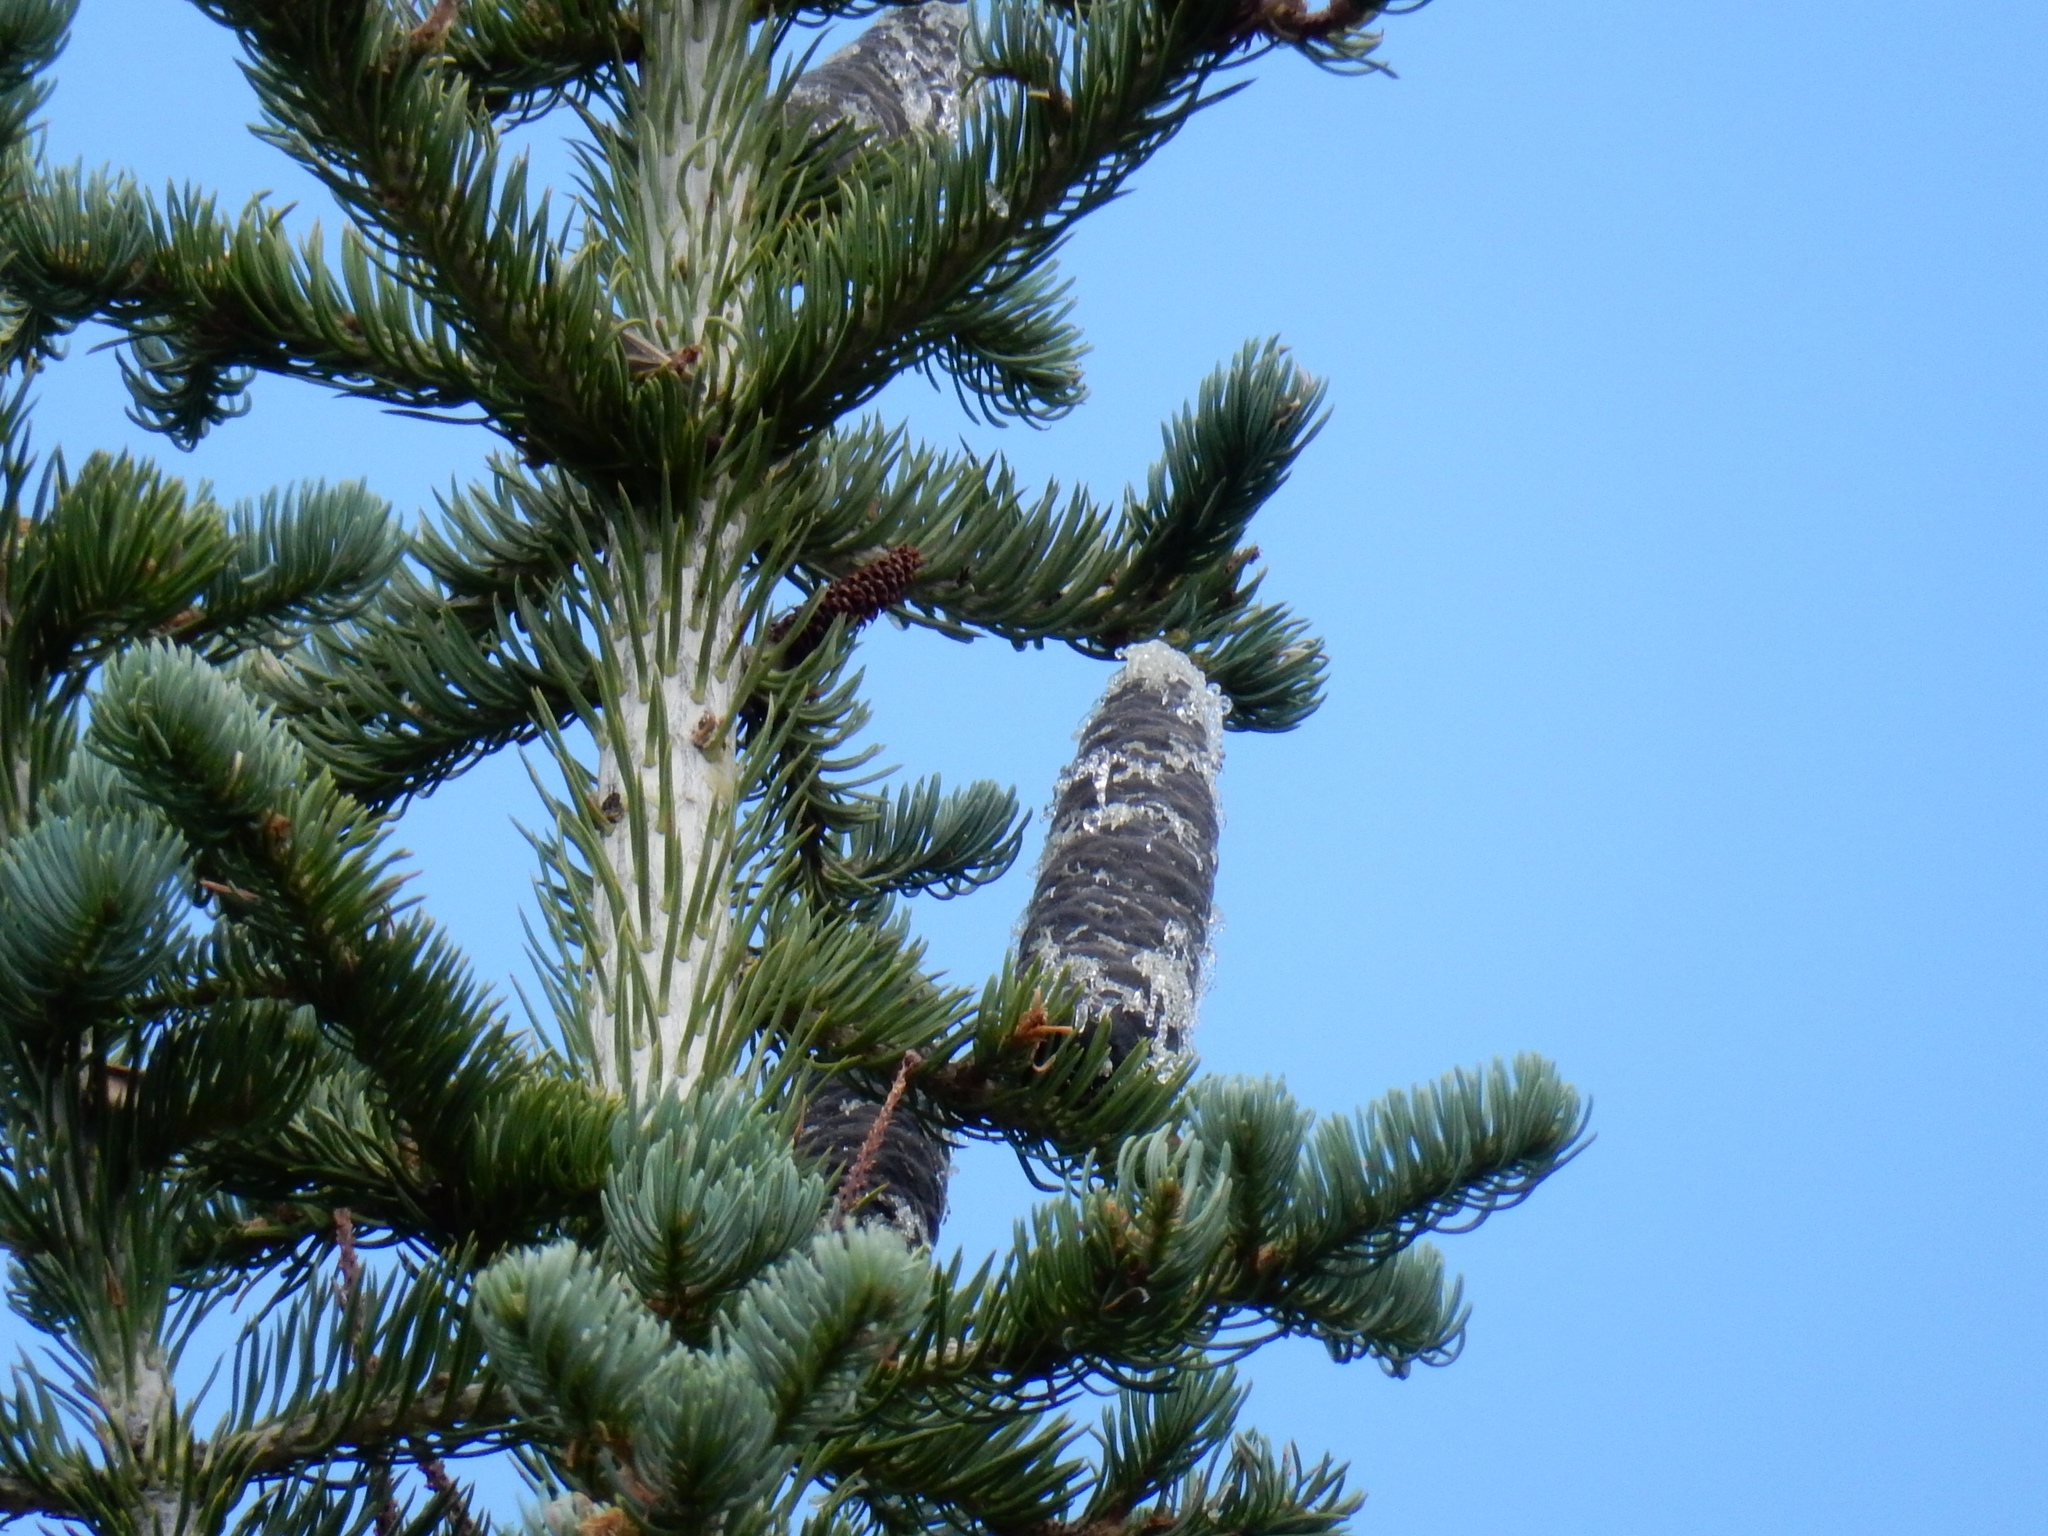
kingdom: Plantae
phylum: Tracheophyta
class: Pinopsida
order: Pinales
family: Pinaceae
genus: Abies
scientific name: Abies lasiocarpa
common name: Subalpine fir
